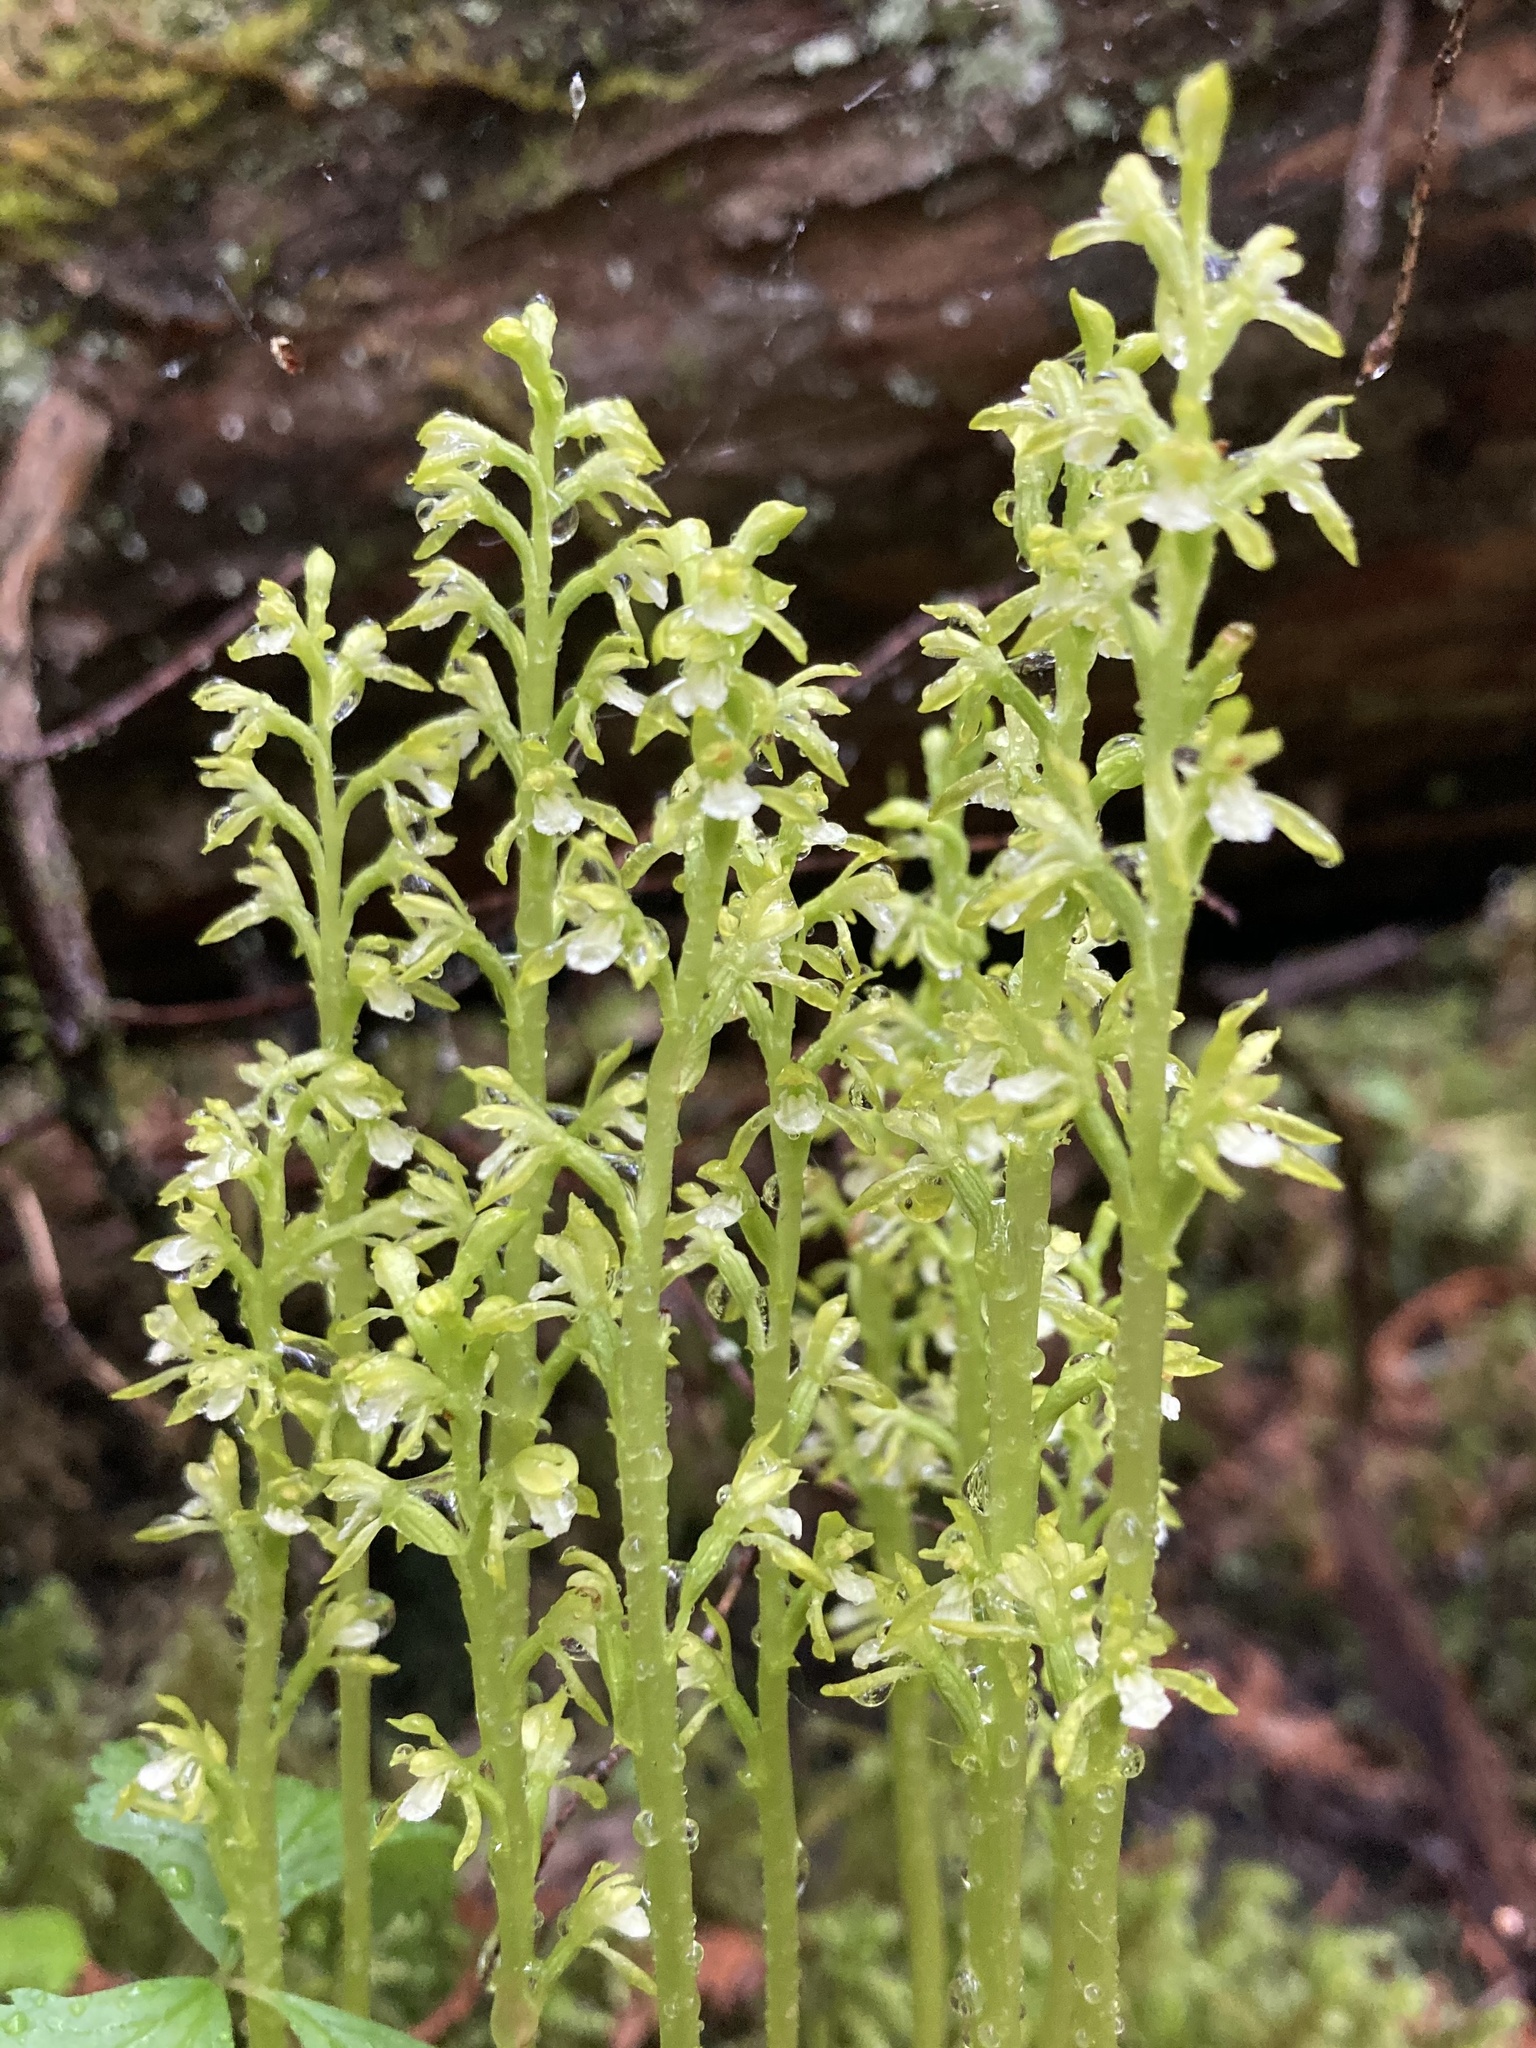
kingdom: Plantae
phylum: Tracheophyta
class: Liliopsida
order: Asparagales
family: Orchidaceae
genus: Corallorhiza
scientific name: Corallorhiza trifida
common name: Yellow coralroot
